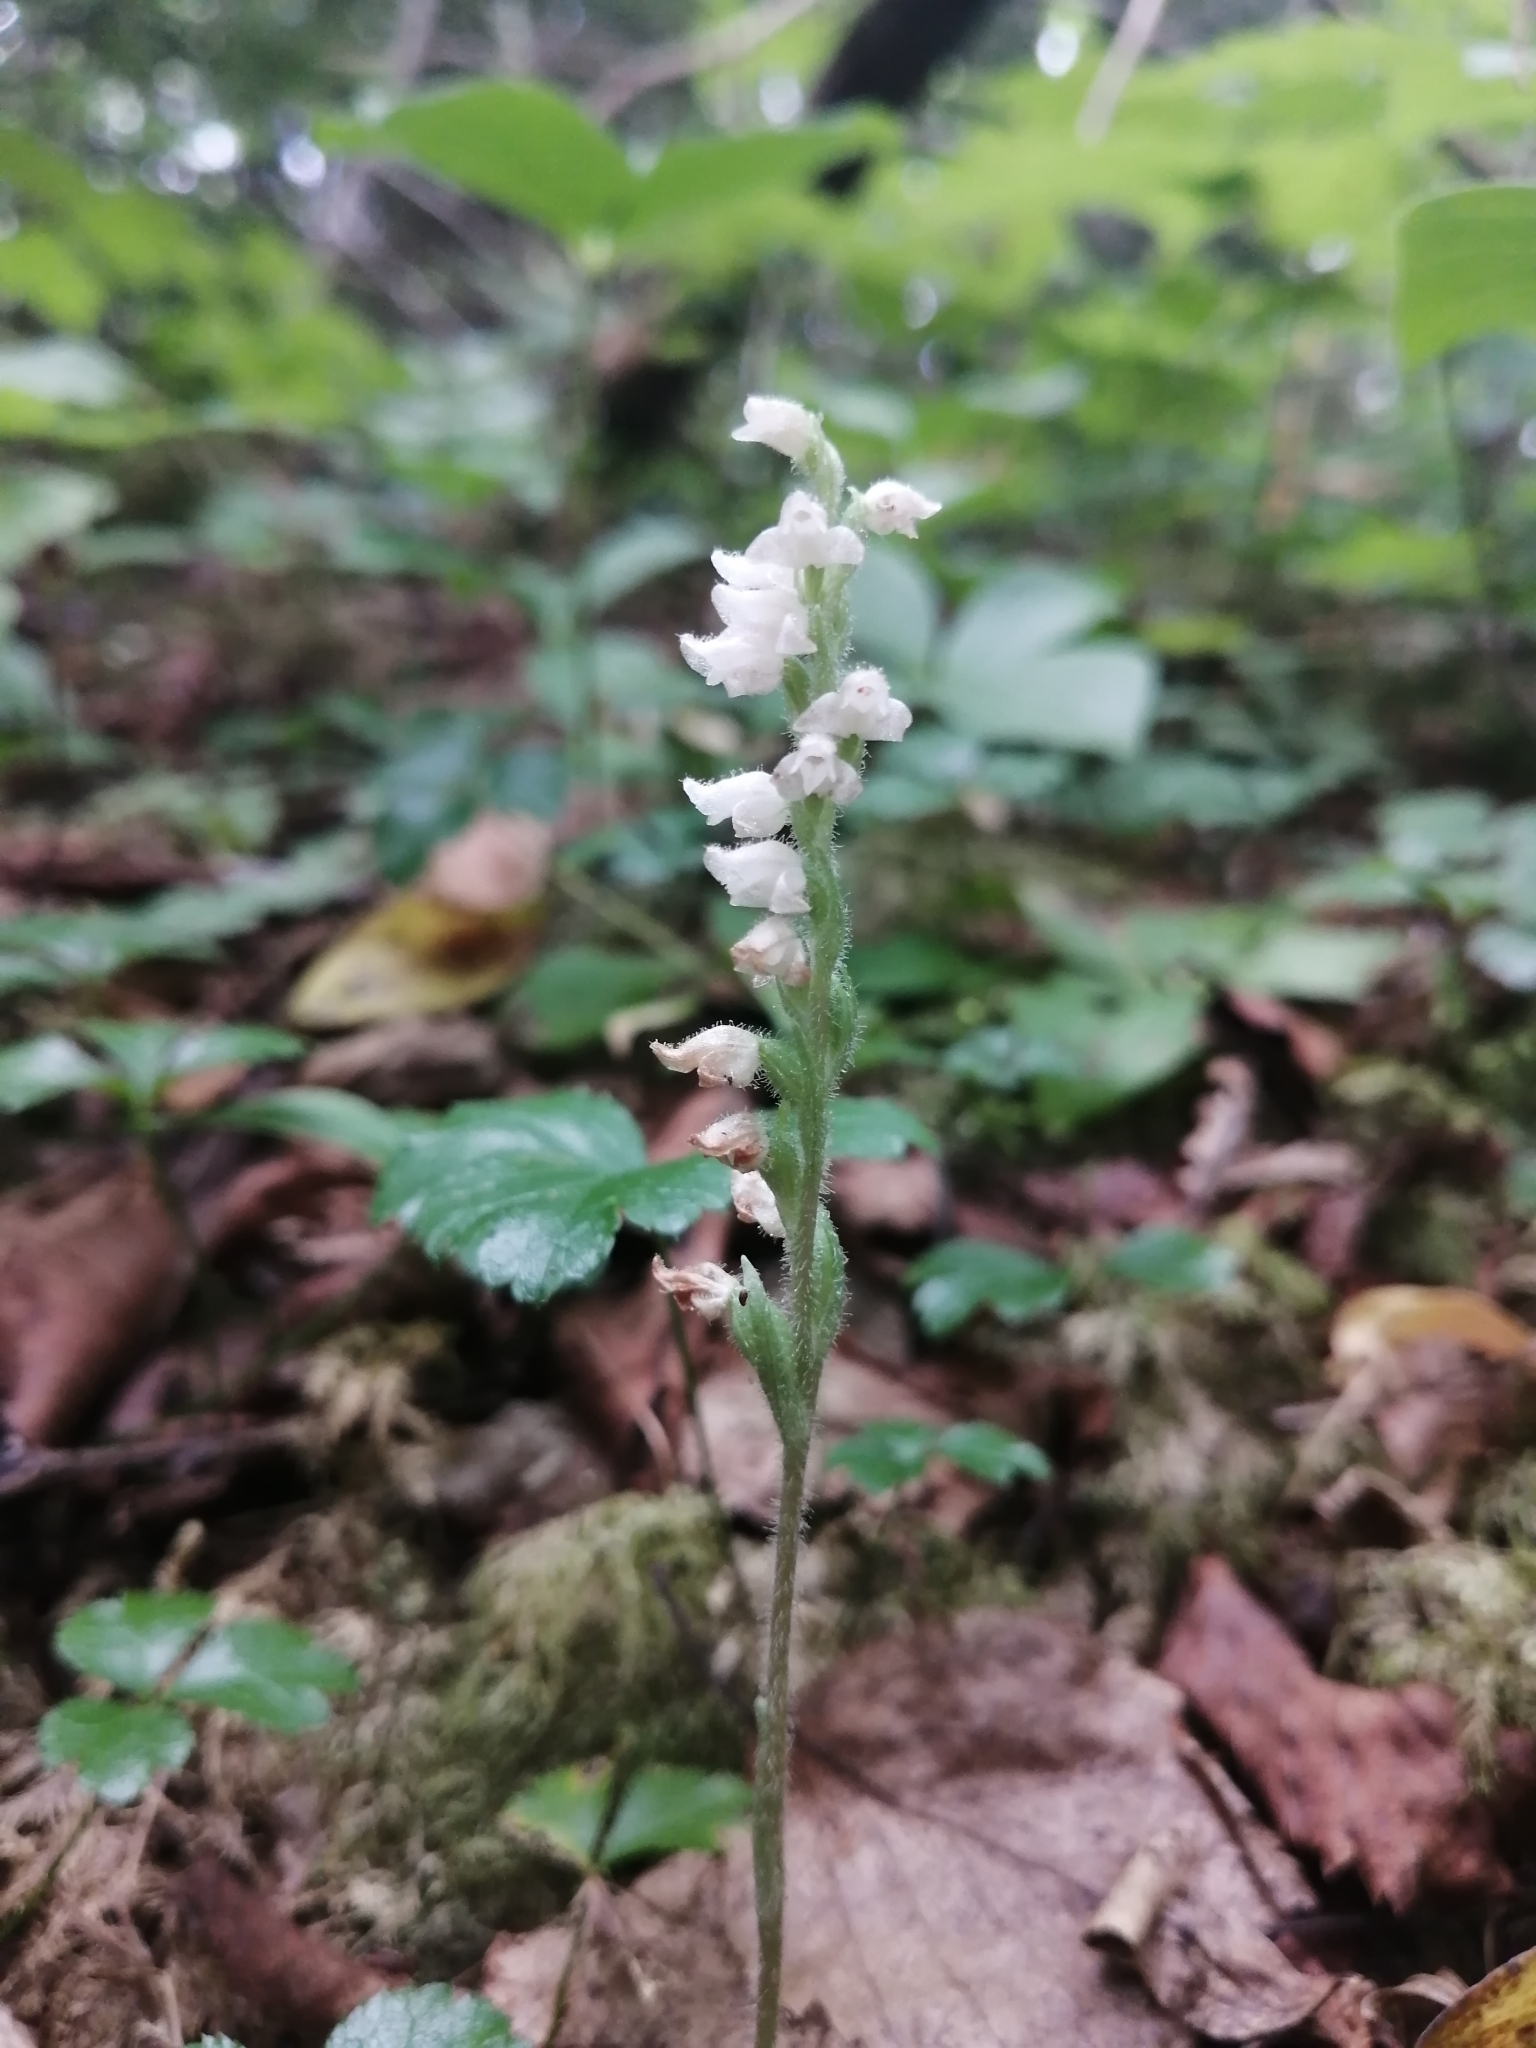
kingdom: Plantae
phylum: Tracheophyta
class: Liliopsida
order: Asparagales
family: Orchidaceae
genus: Goodyera
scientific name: Goodyera tesselata
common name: Checkered rattlesnake-plantain
